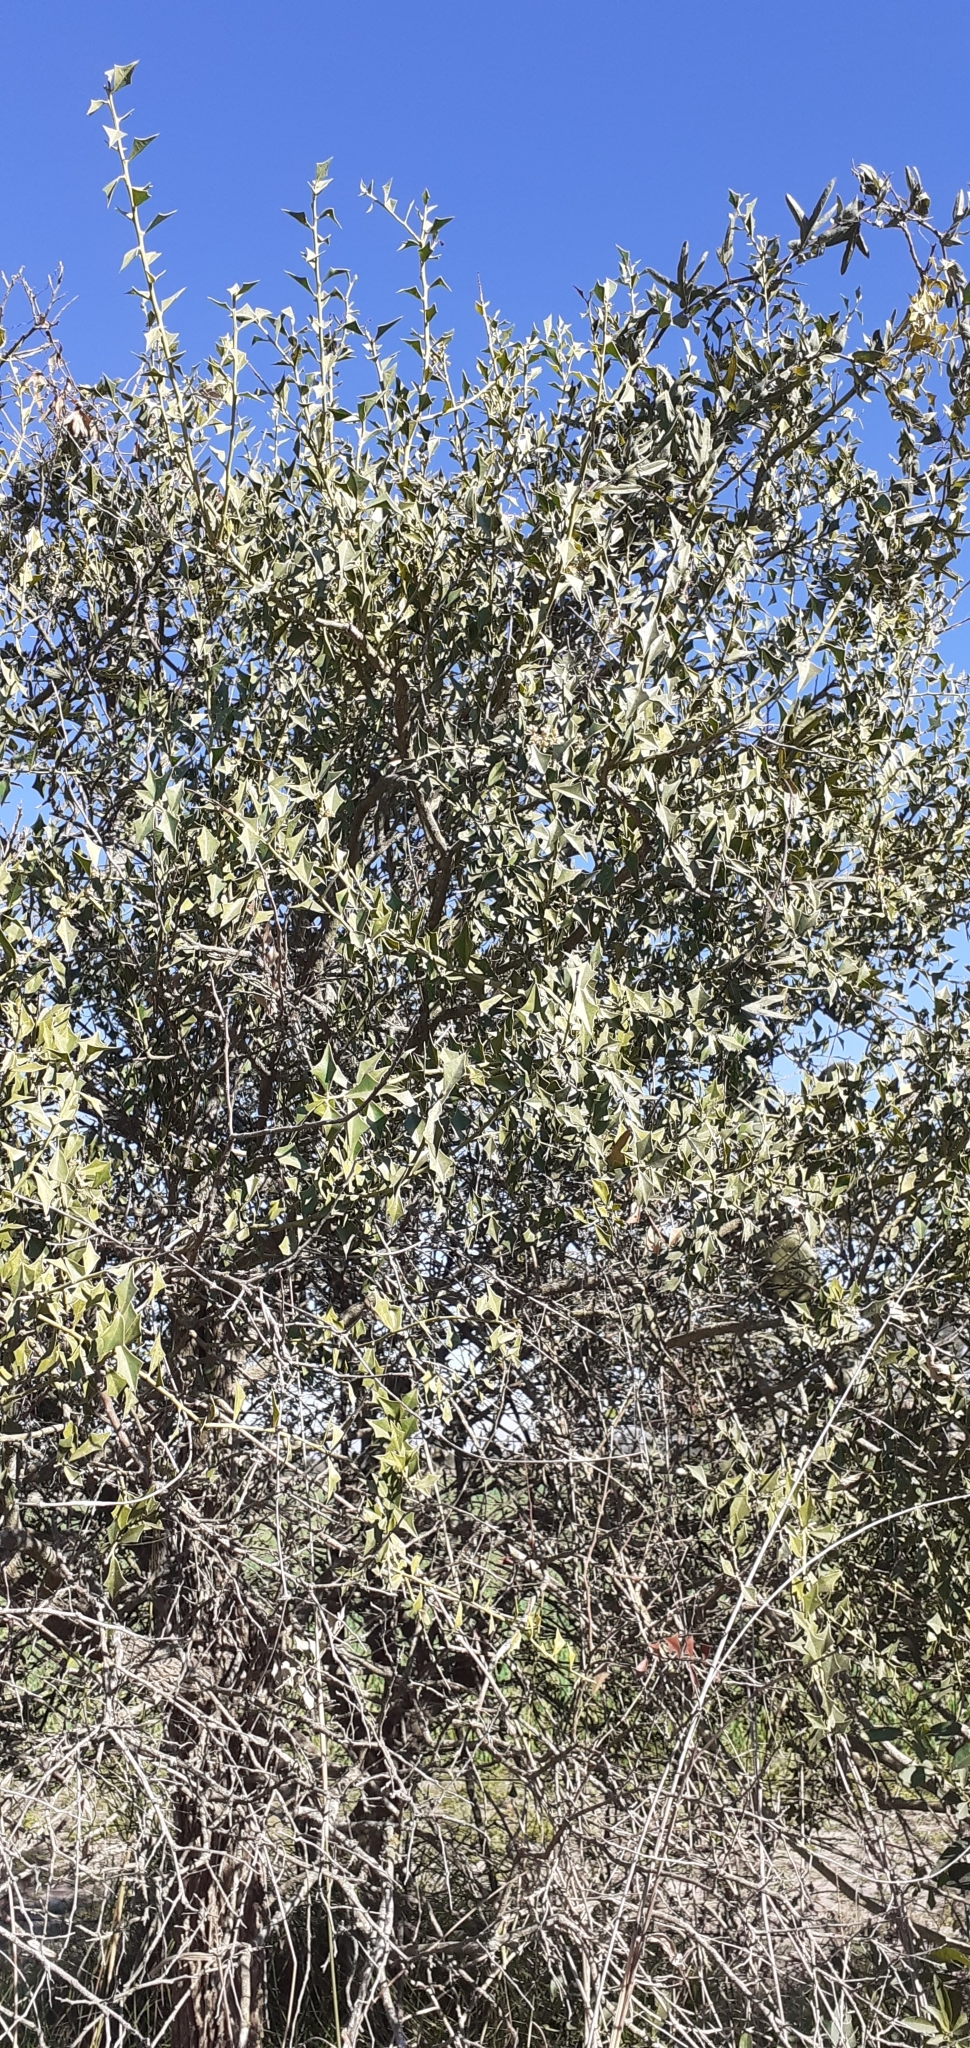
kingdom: Plantae
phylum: Tracheophyta
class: Magnoliopsida
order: Santalales
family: Cervantesiaceae
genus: Jodina
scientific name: Jodina rhombifolia
